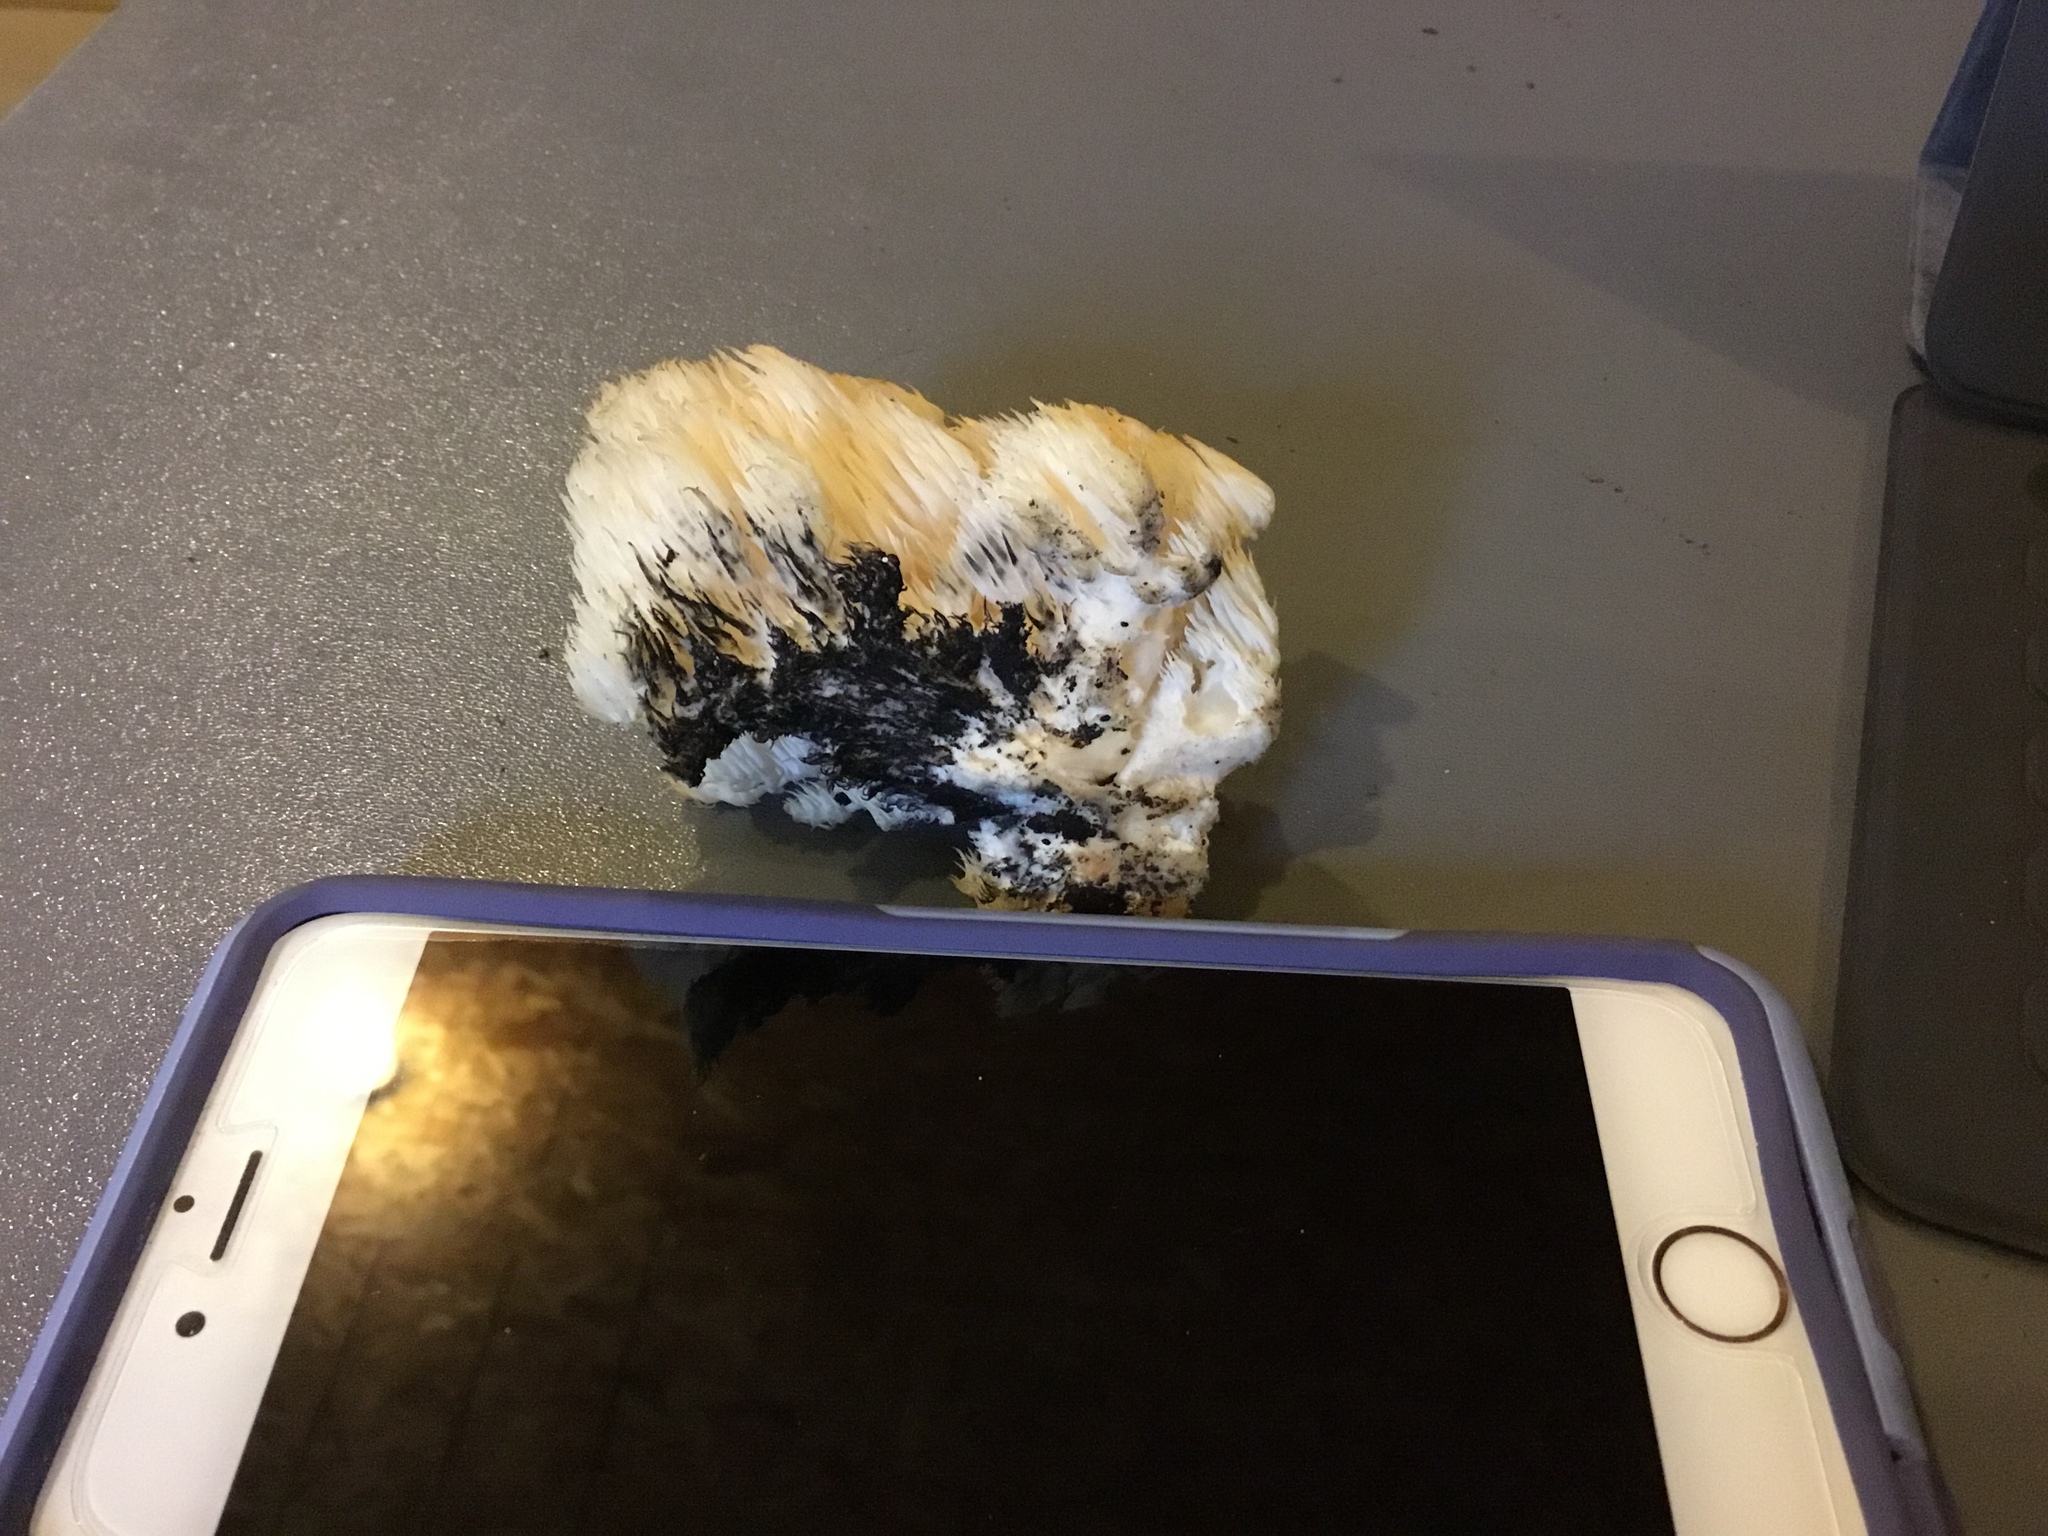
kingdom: Fungi
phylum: Basidiomycota
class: Agaricomycetes
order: Russulales
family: Hericiaceae
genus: Hericium
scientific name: Hericium americanum
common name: Bear's head tooth
